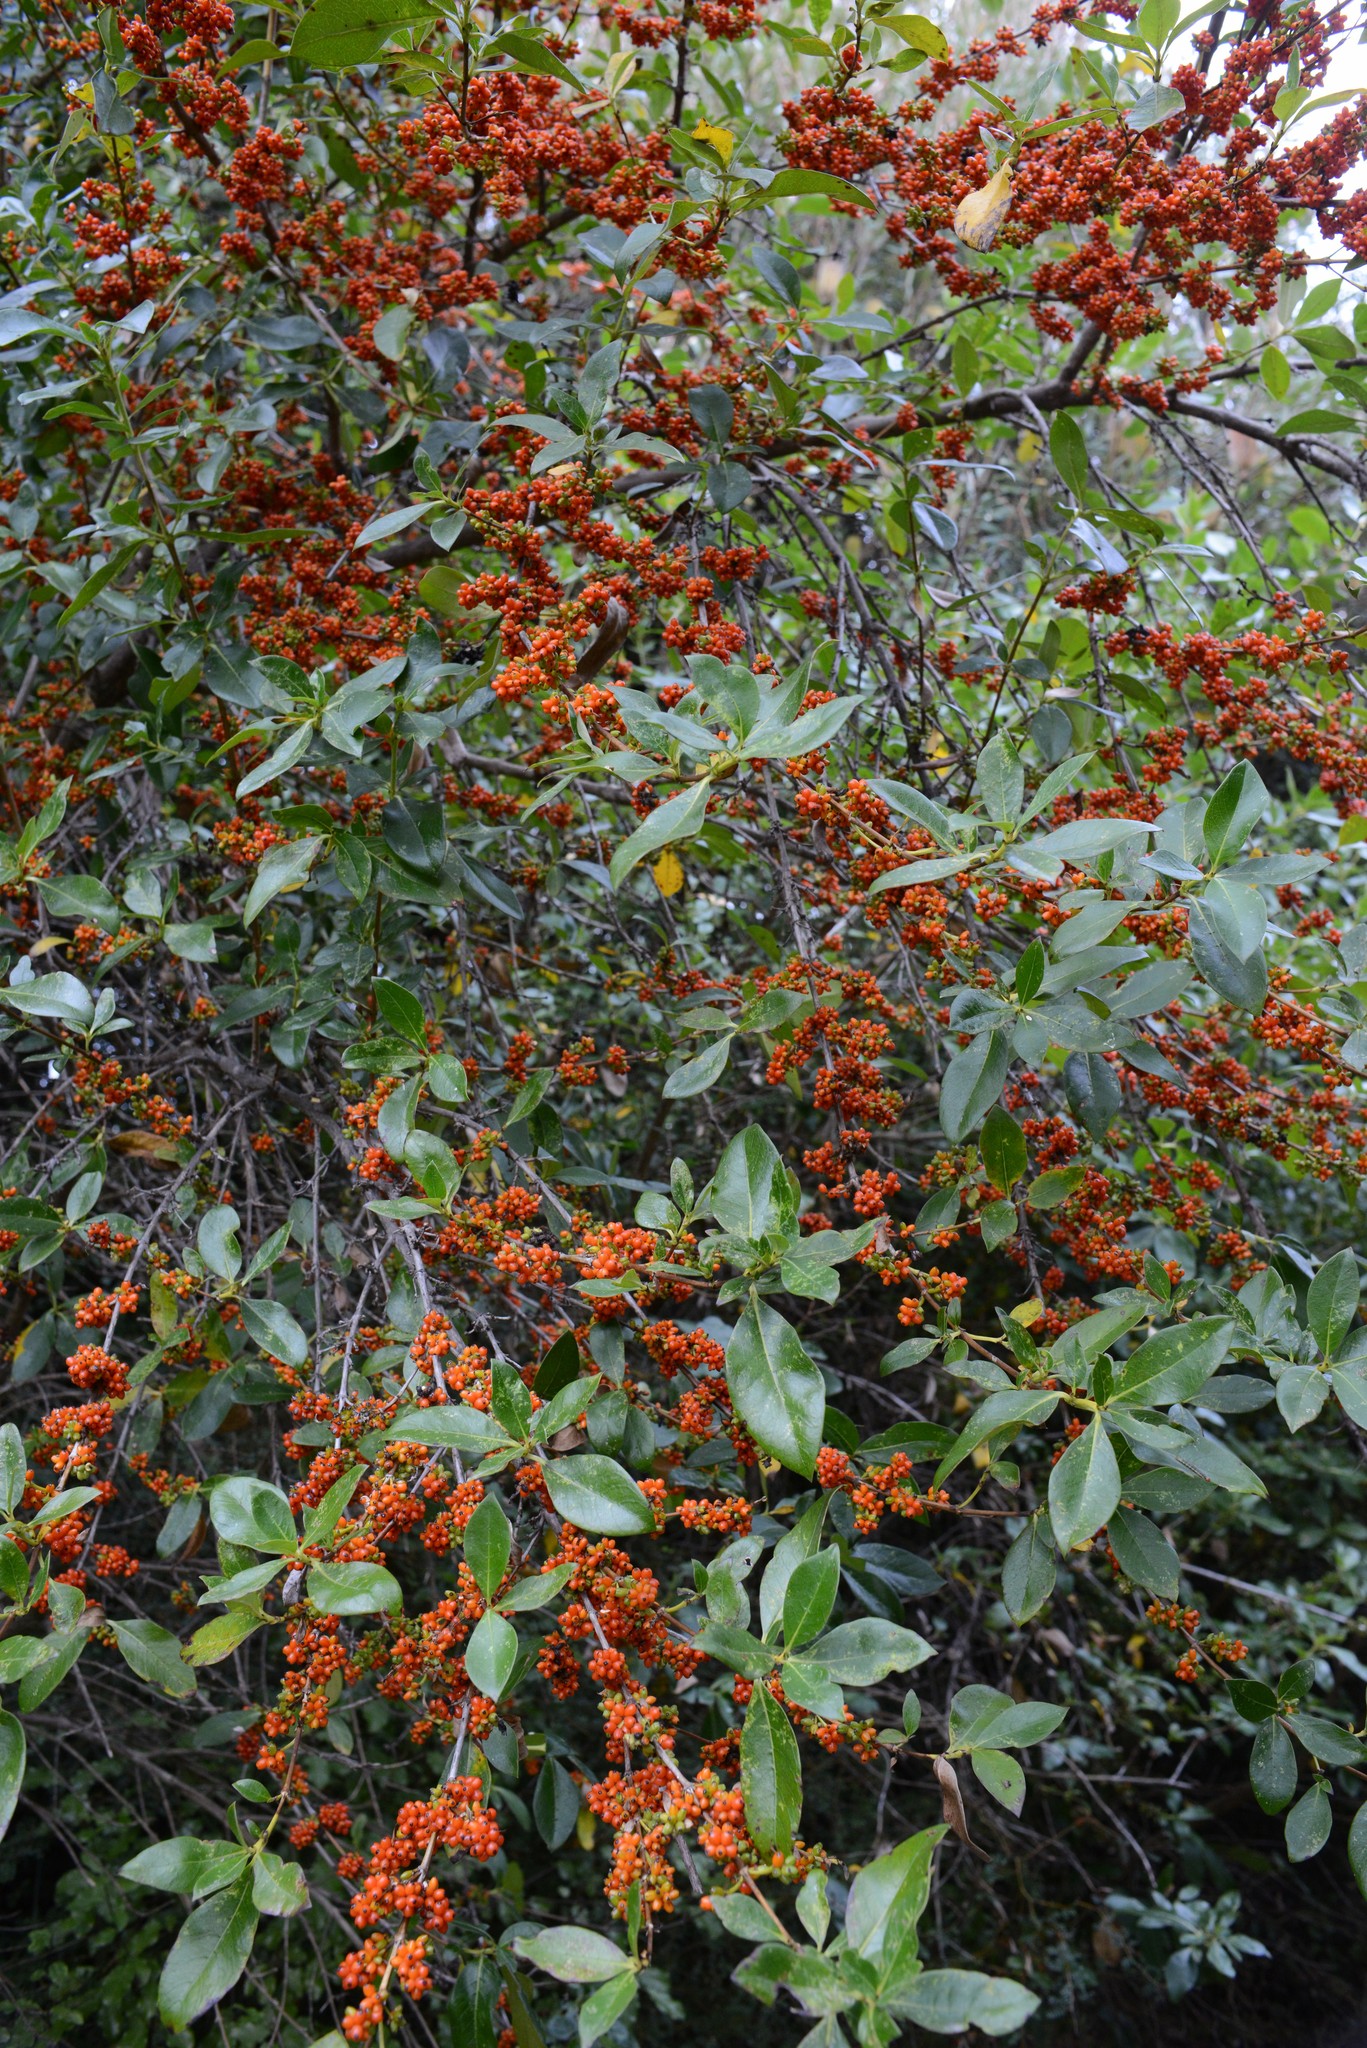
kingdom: Plantae
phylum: Tracheophyta
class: Magnoliopsida
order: Gentianales
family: Rubiaceae
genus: Coprosma
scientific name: Coprosma robusta
